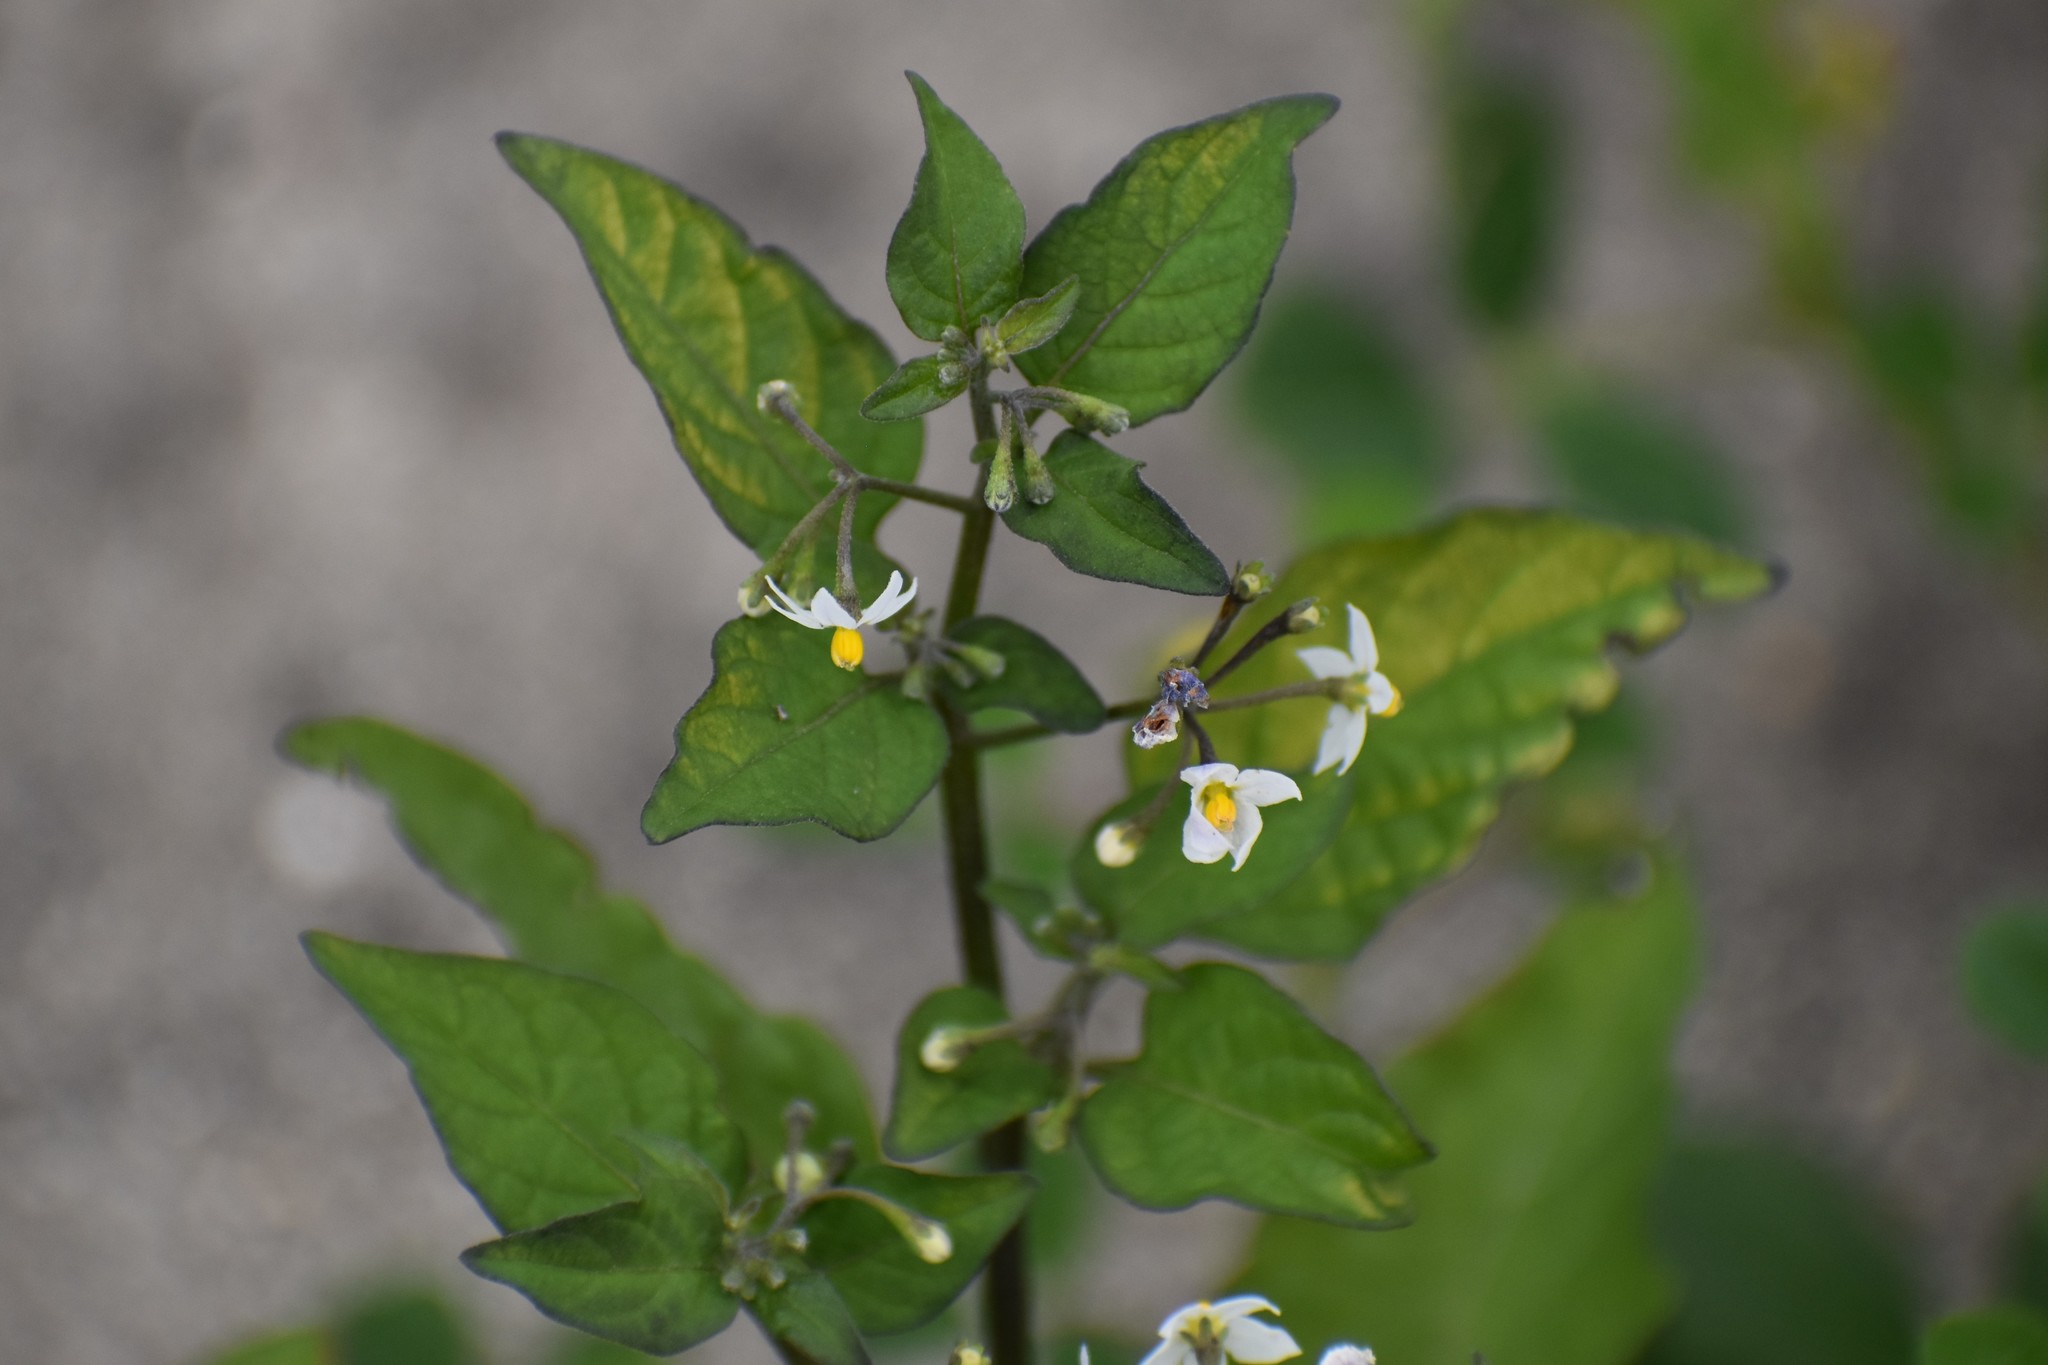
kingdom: Plantae
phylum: Tracheophyta
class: Magnoliopsida
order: Solanales
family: Solanaceae
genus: Solanum
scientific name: Solanum americanum
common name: American black nightshade
